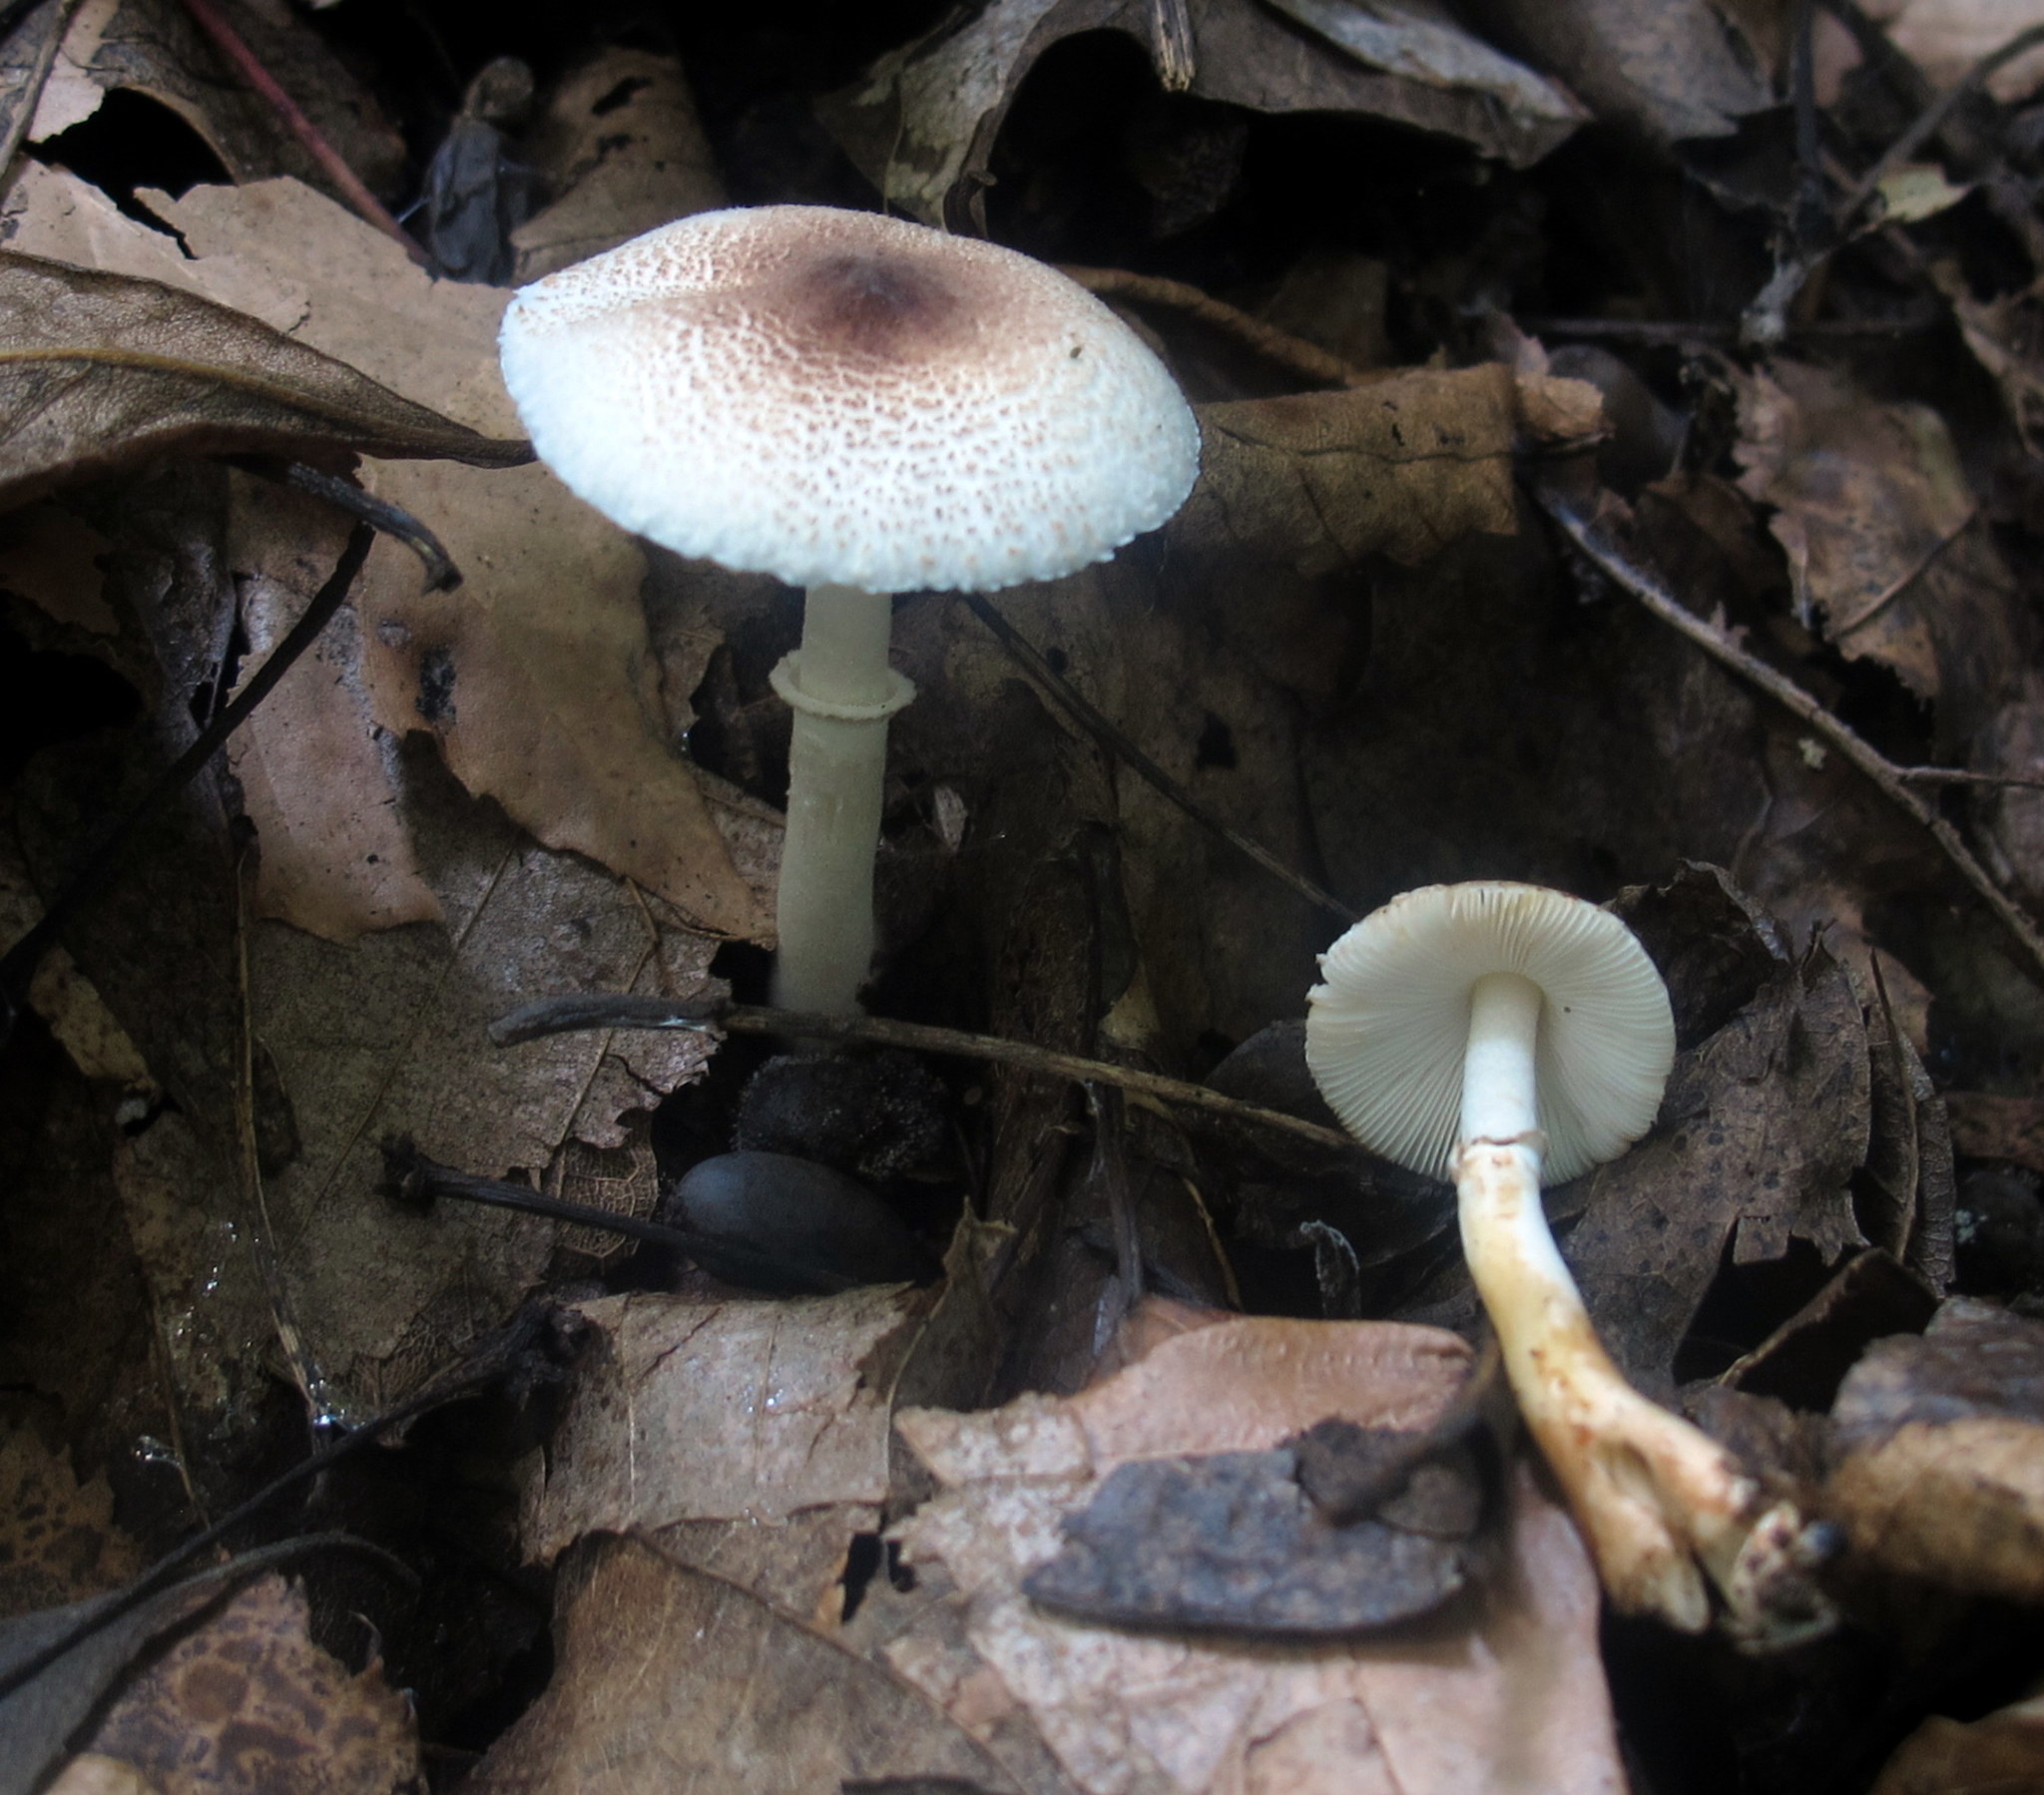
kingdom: Fungi
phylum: Basidiomycota
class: Agaricomycetes
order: Agaricales
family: Agaricaceae
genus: Leucocoprinus
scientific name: Leucocoprinus brunnescens
